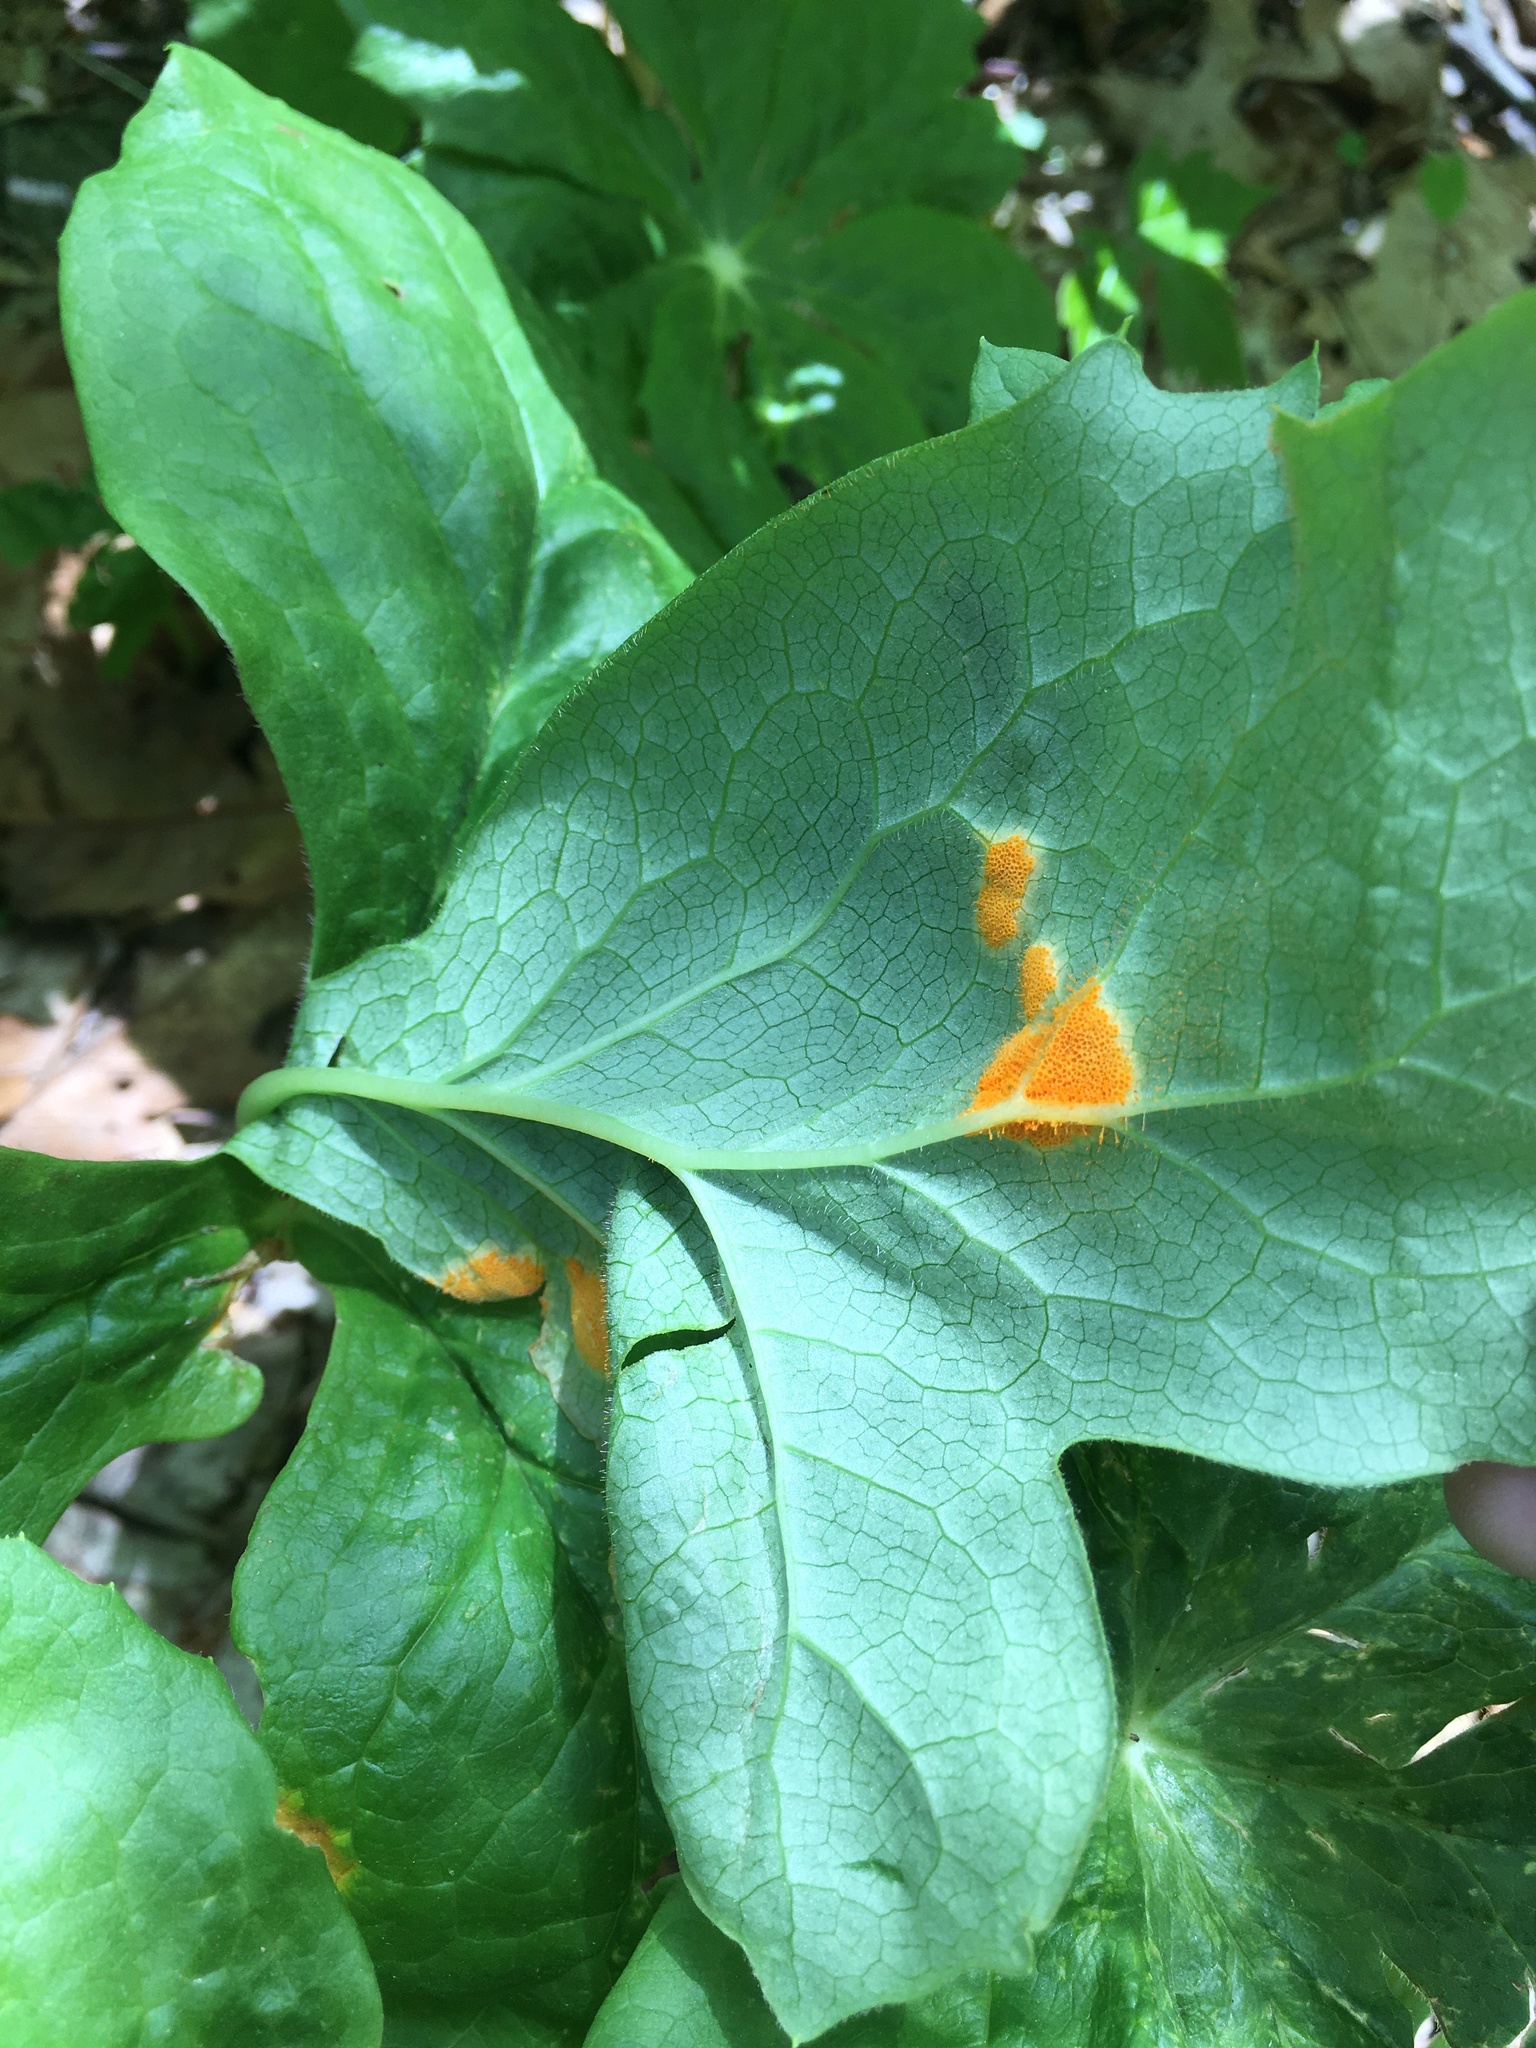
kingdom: Fungi
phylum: Basidiomycota
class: Pucciniomycetes
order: Pucciniales
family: Pucciniaceae
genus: Puccinia
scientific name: Puccinia podophylli
